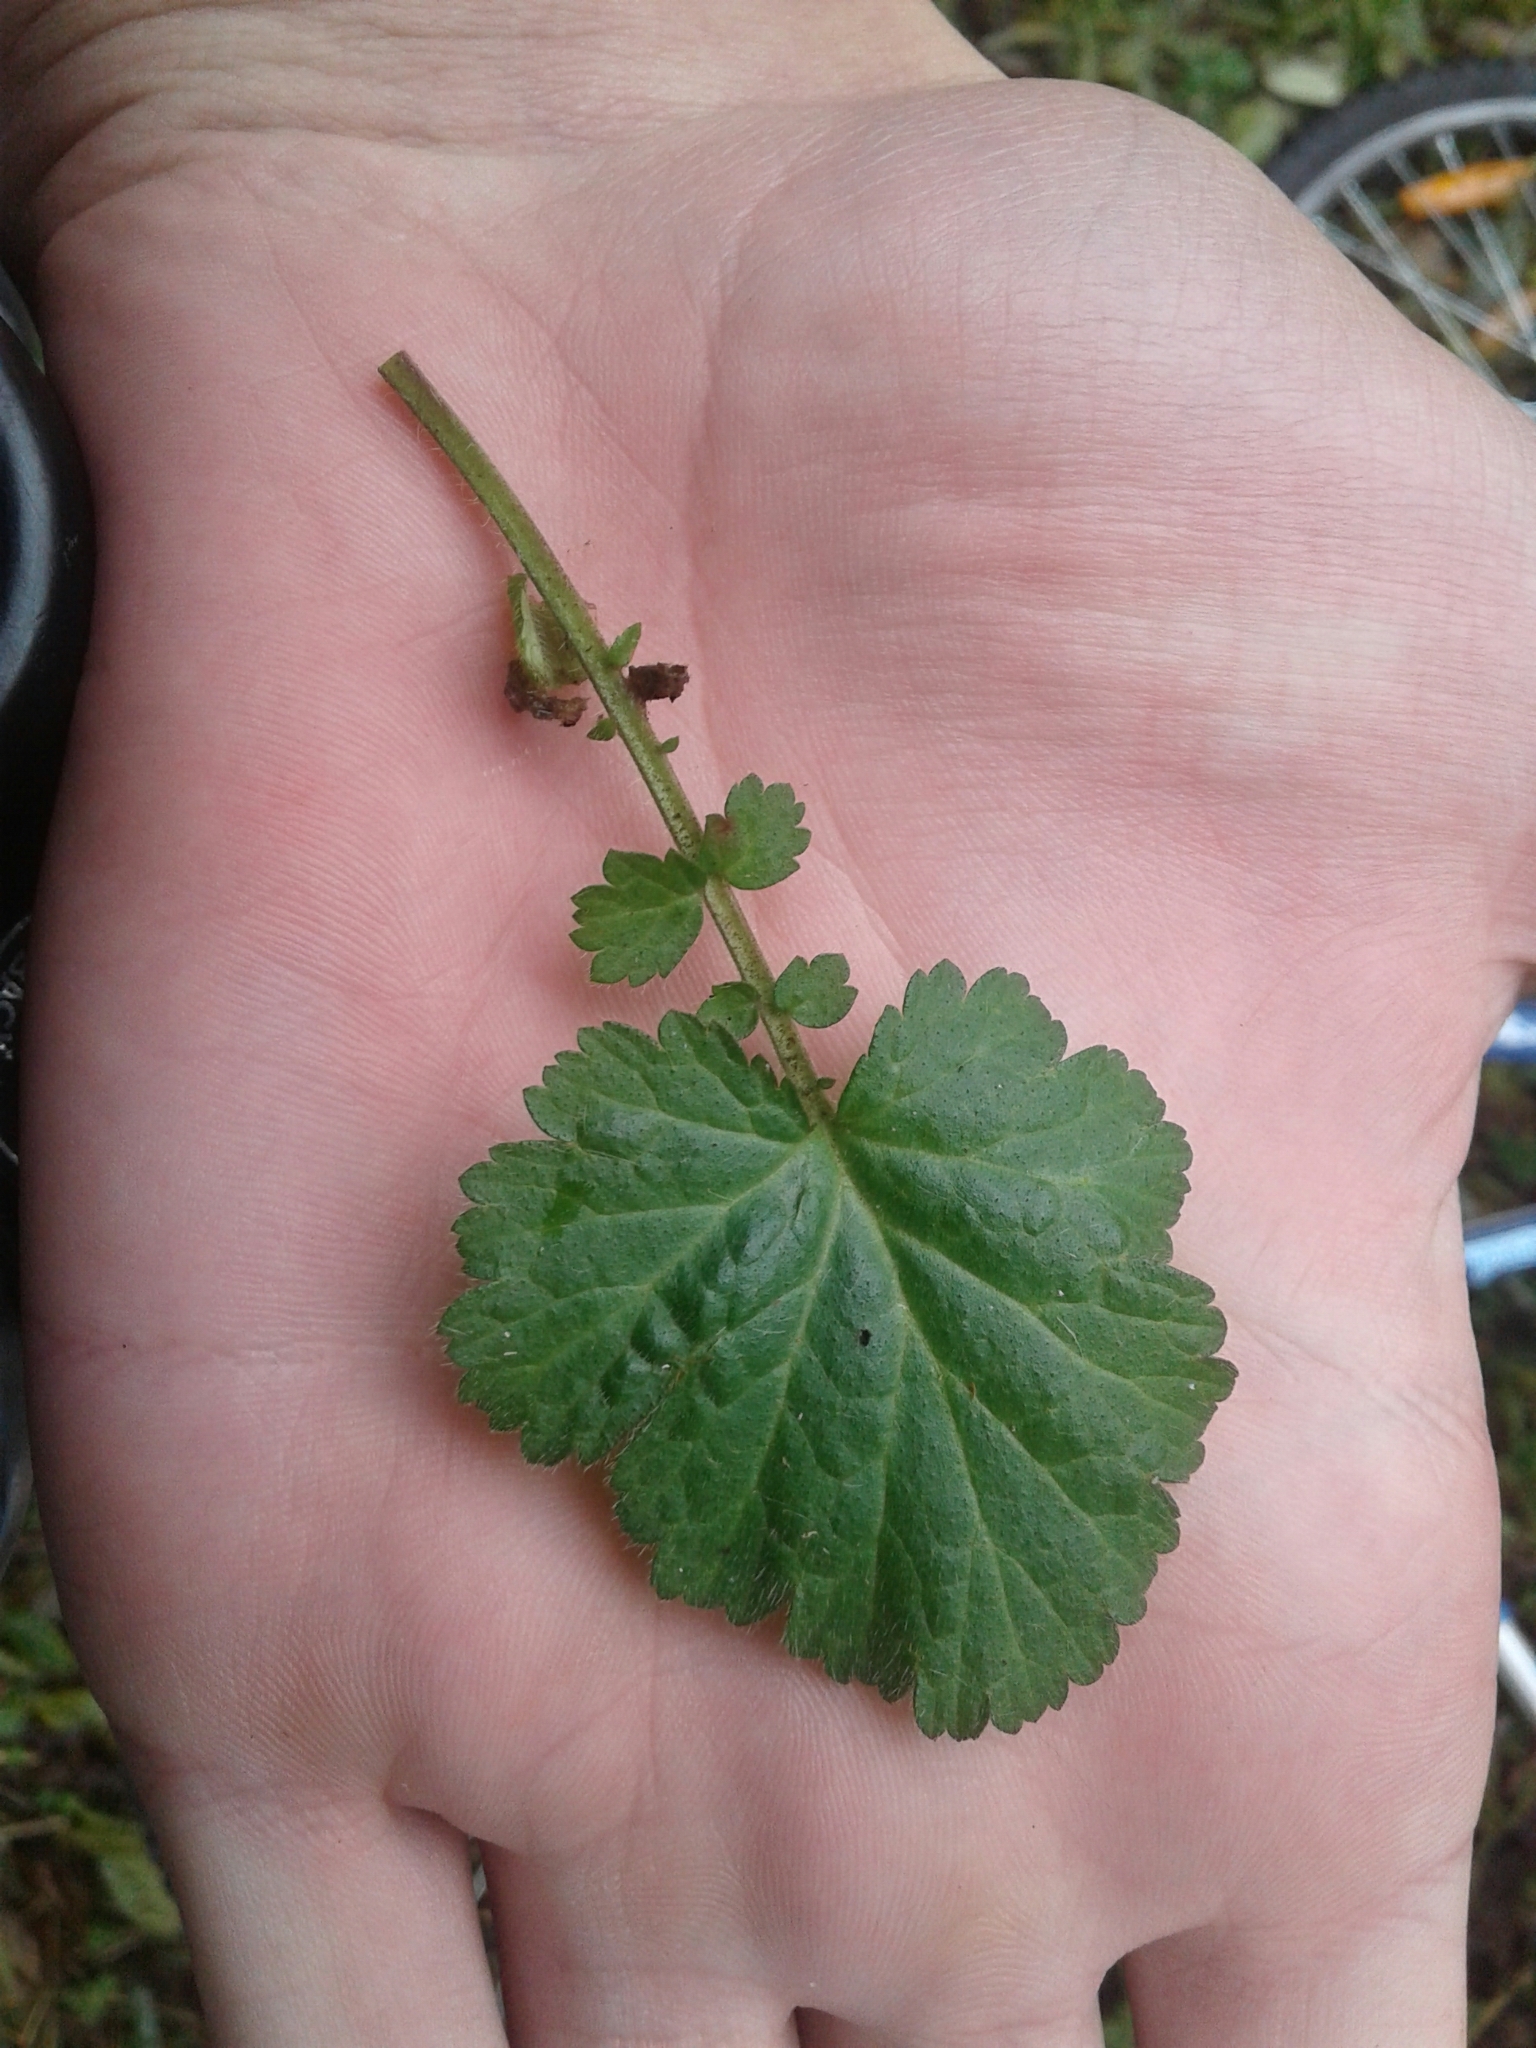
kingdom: Plantae
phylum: Tracheophyta
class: Magnoliopsida
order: Rosales
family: Rosaceae
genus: Geum
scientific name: Geum canadense
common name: White avens
